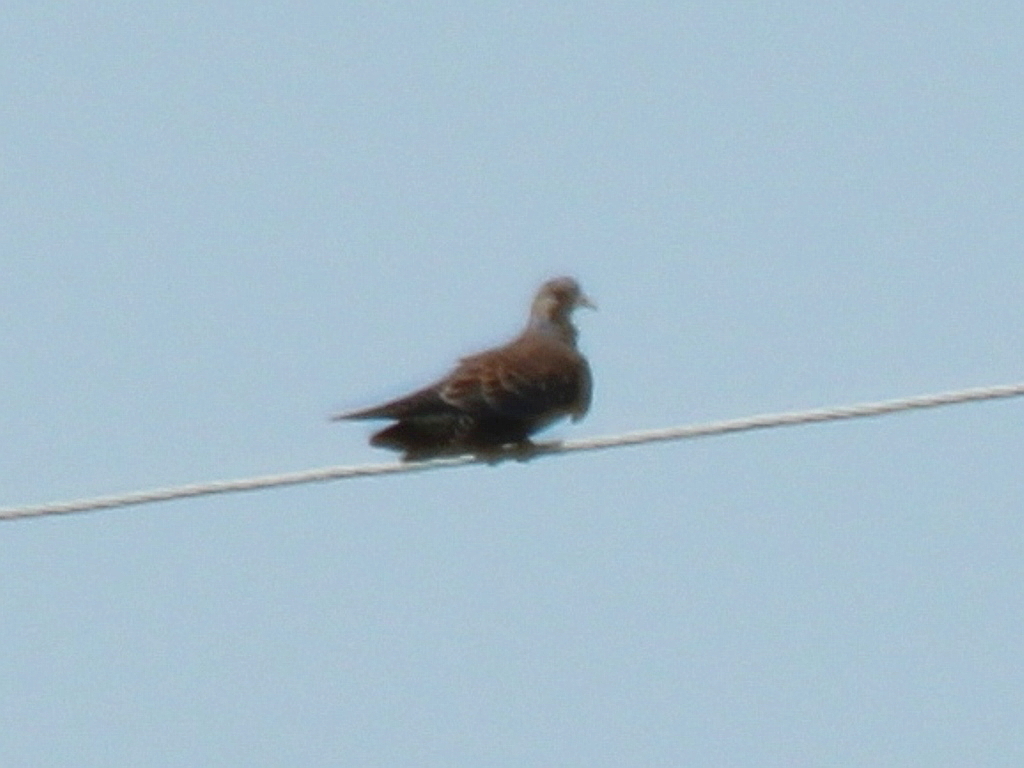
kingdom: Animalia
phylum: Chordata
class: Aves
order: Columbiformes
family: Columbidae
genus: Streptopelia
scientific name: Streptopelia orientalis
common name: Oriental turtle dove
